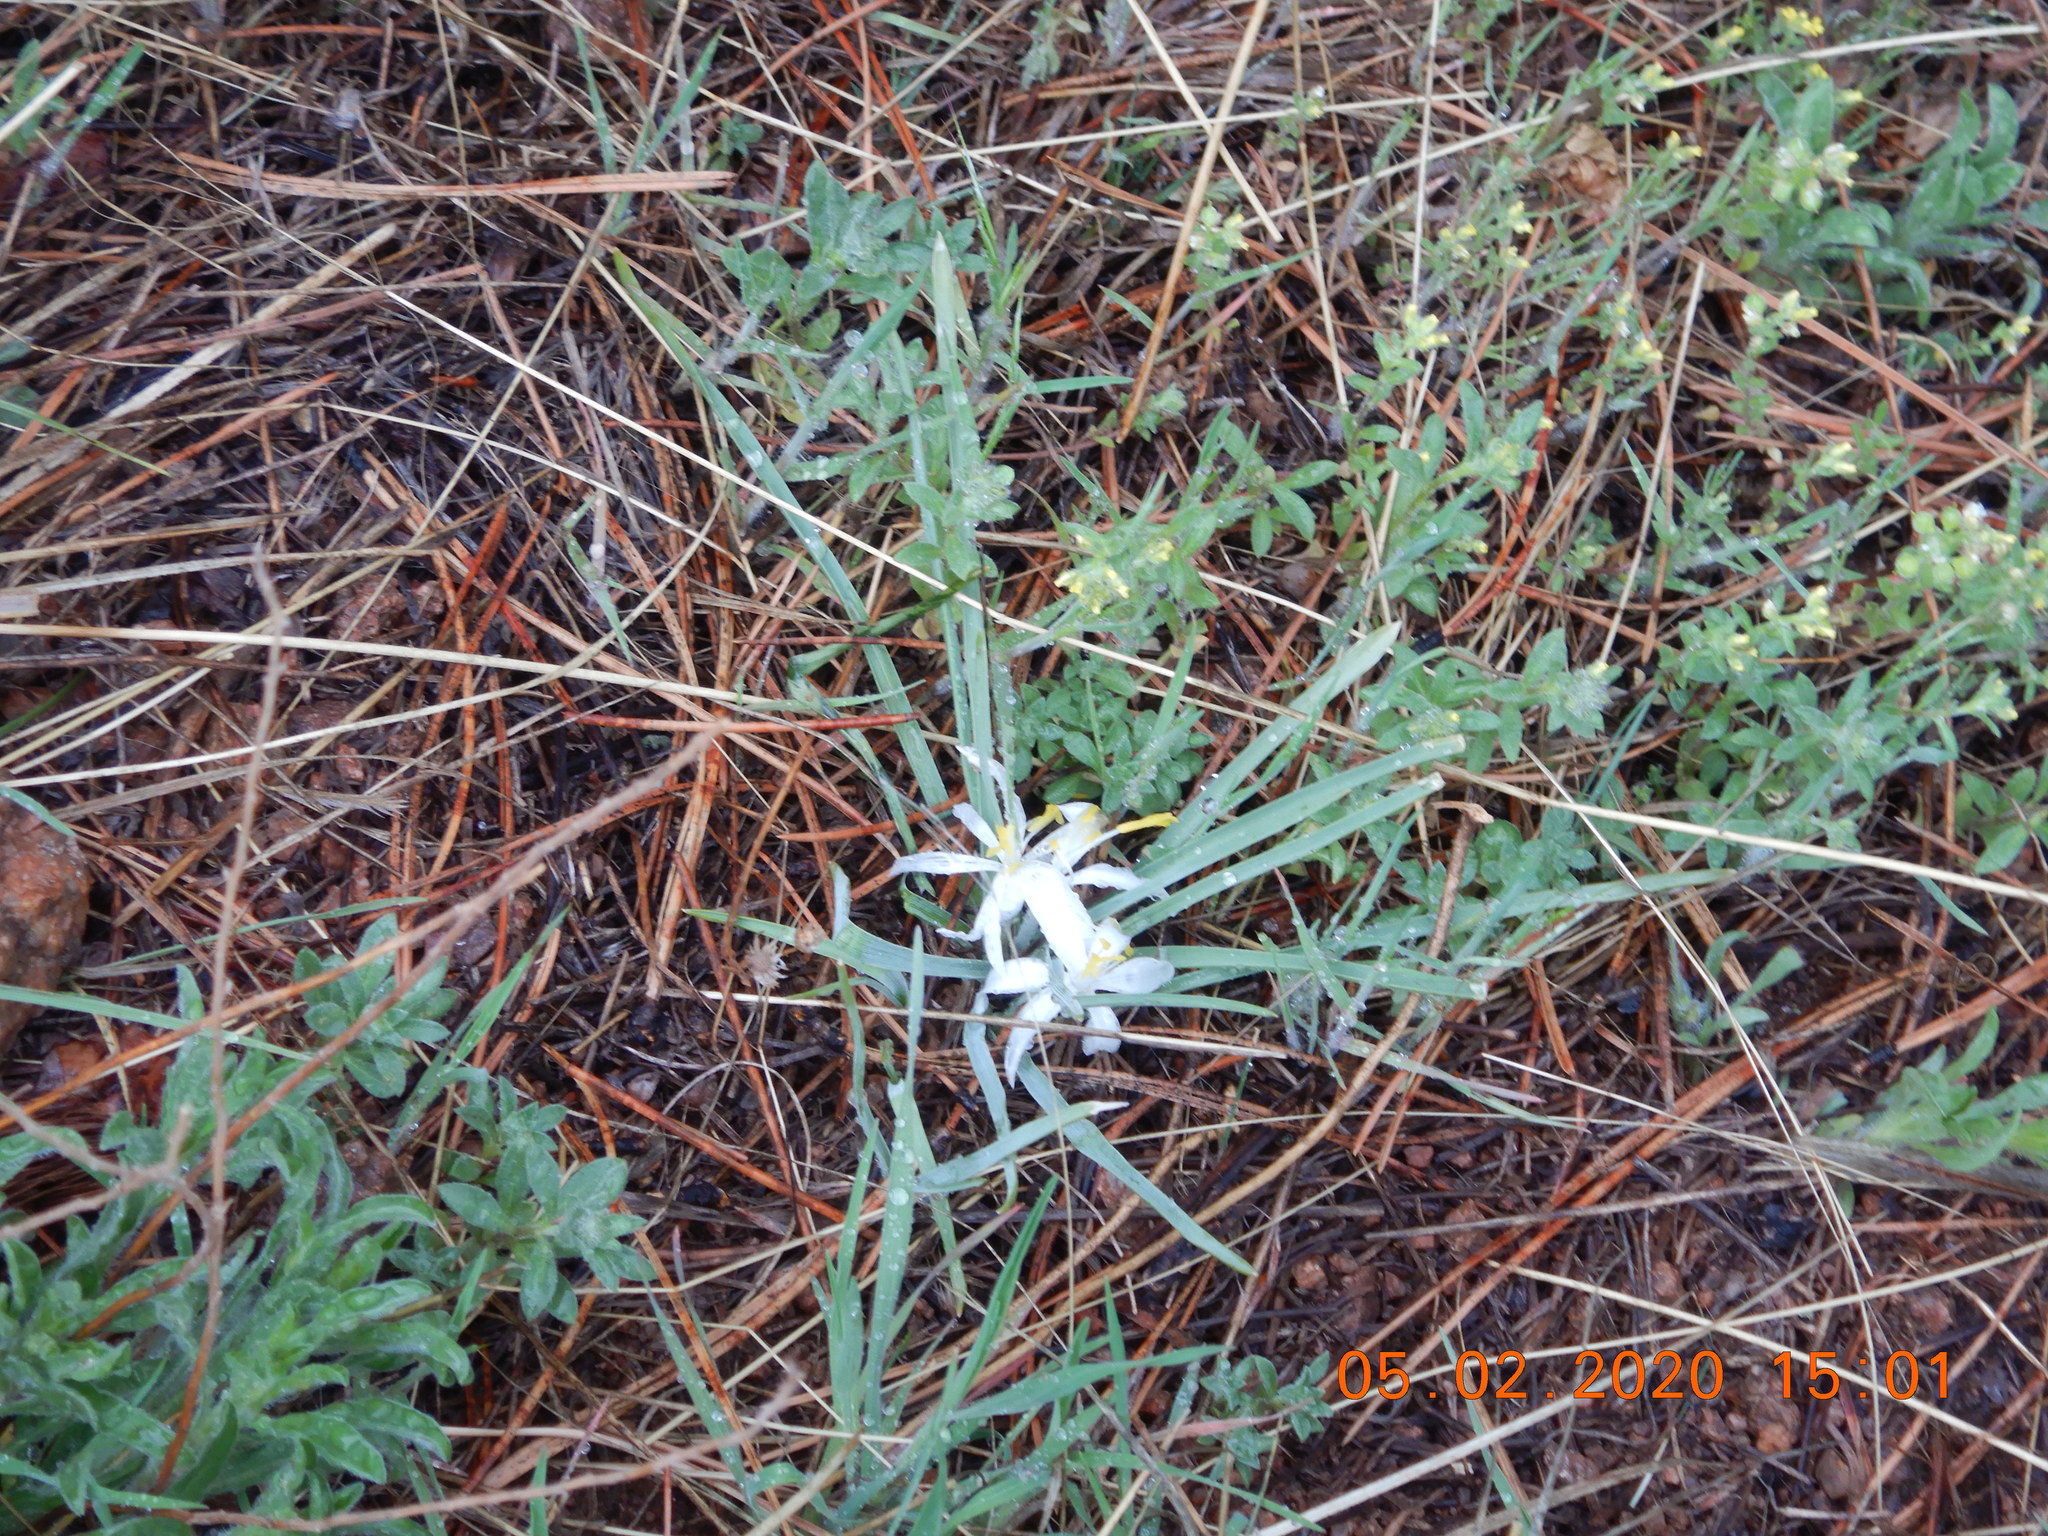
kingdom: Plantae
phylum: Tracheophyta
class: Liliopsida
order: Asparagales
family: Asparagaceae
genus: Leucocrinum
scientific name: Leucocrinum montanum
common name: Mountain-lily
